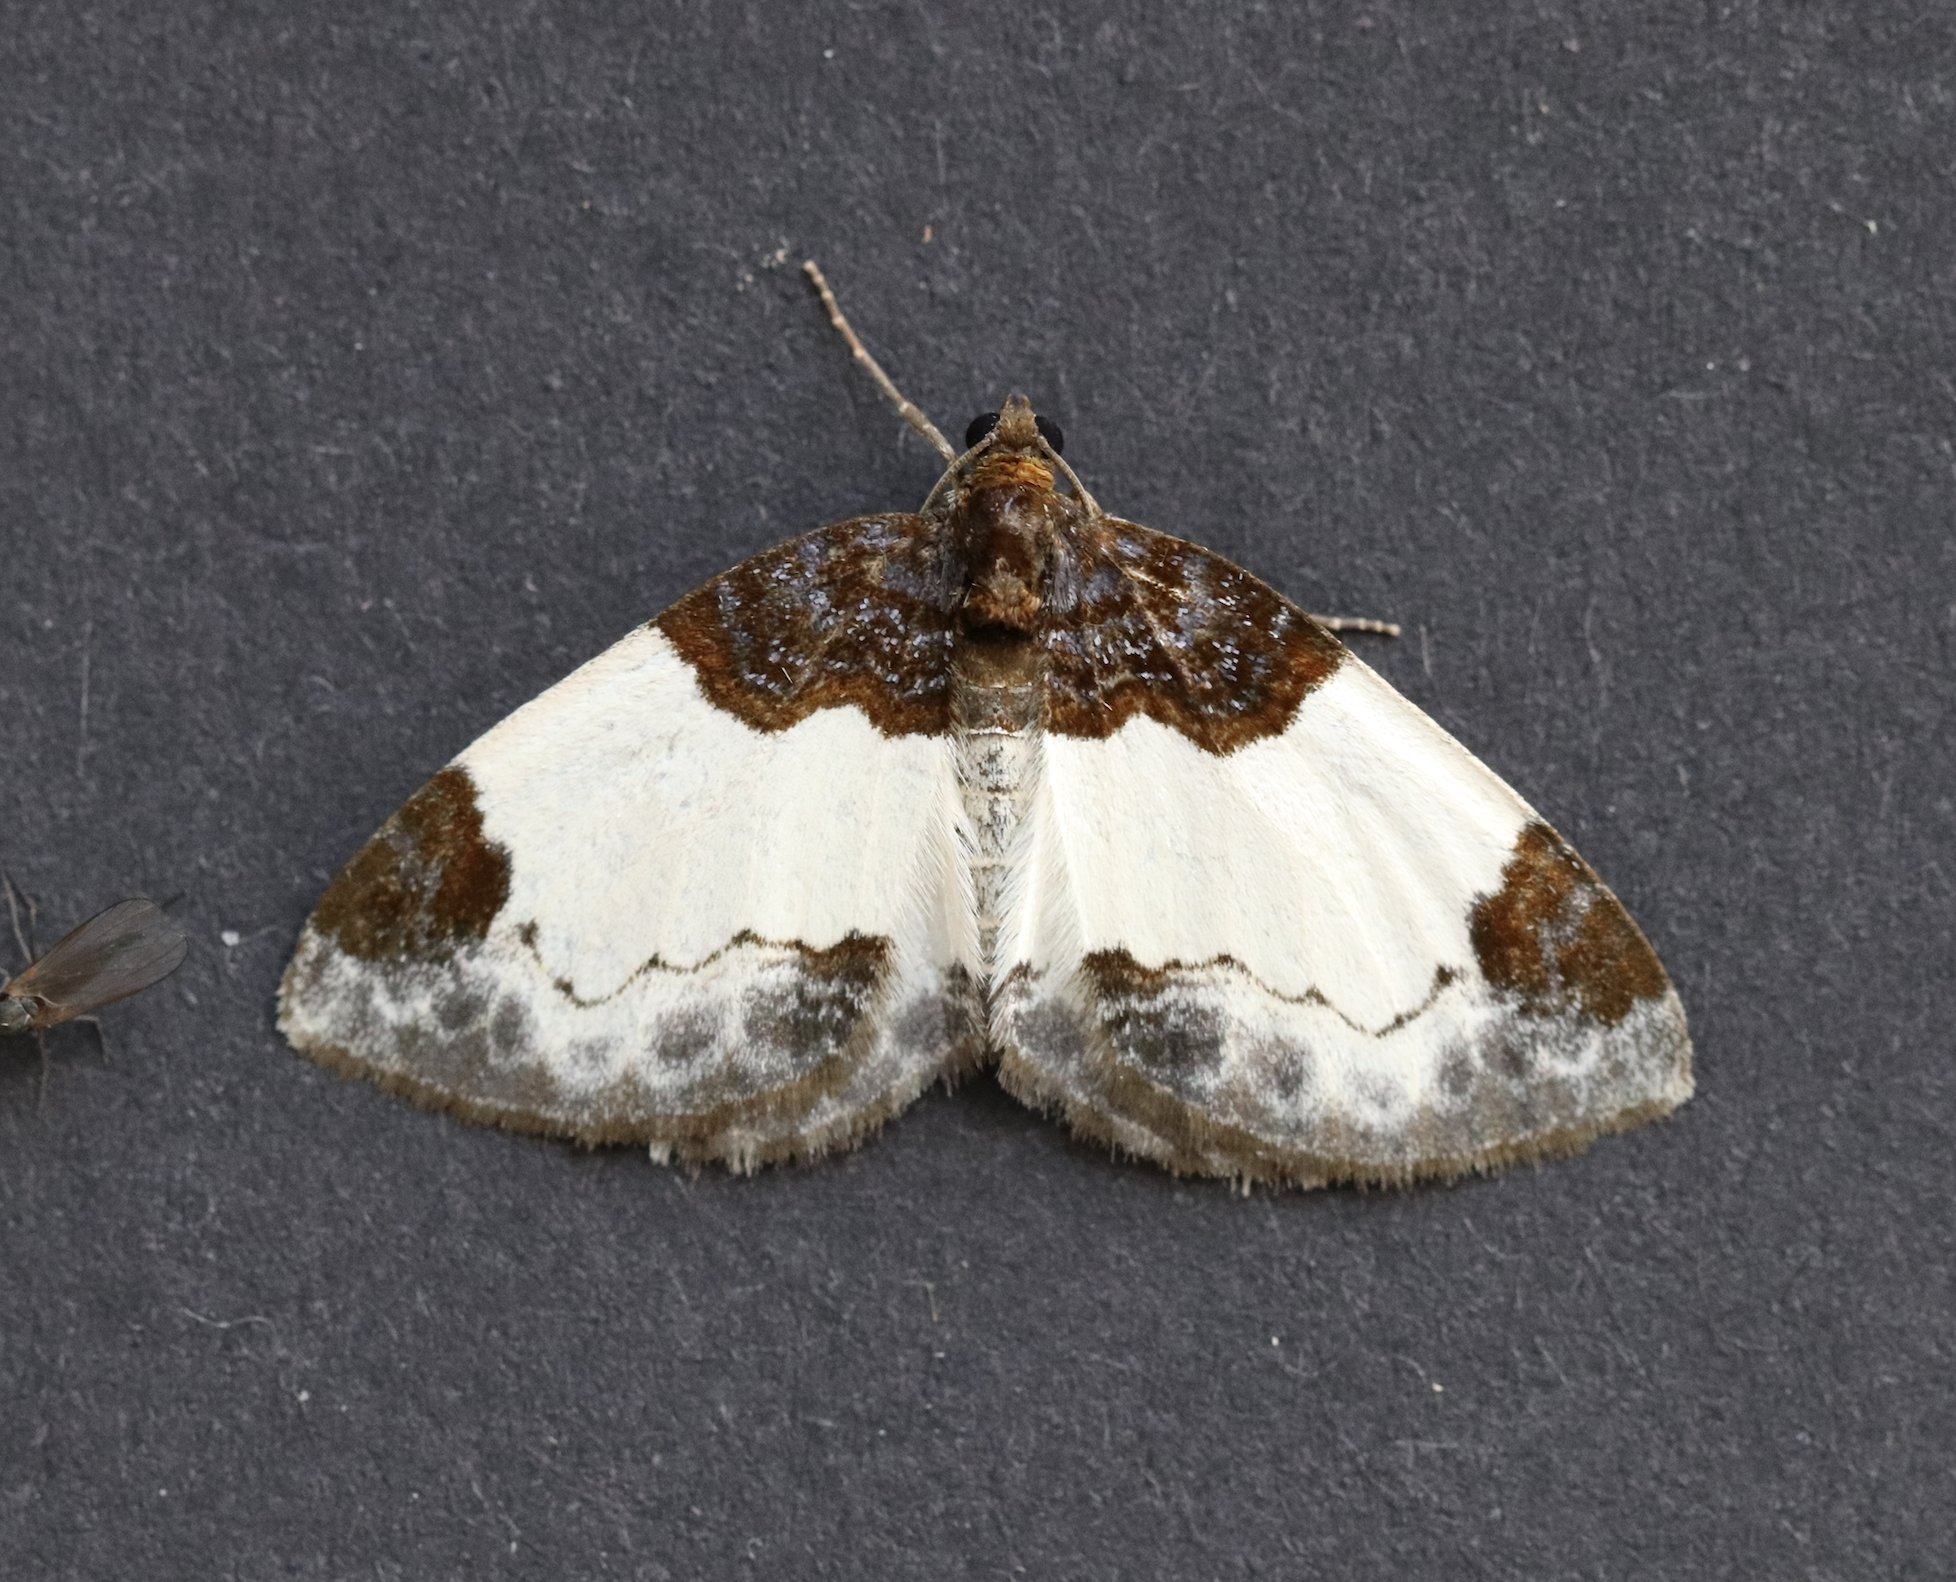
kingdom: Animalia
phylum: Arthropoda
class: Insecta
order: Lepidoptera
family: Geometridae
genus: Mesoleuca
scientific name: Mesoleuca albicillata
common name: Beautiful carpet
